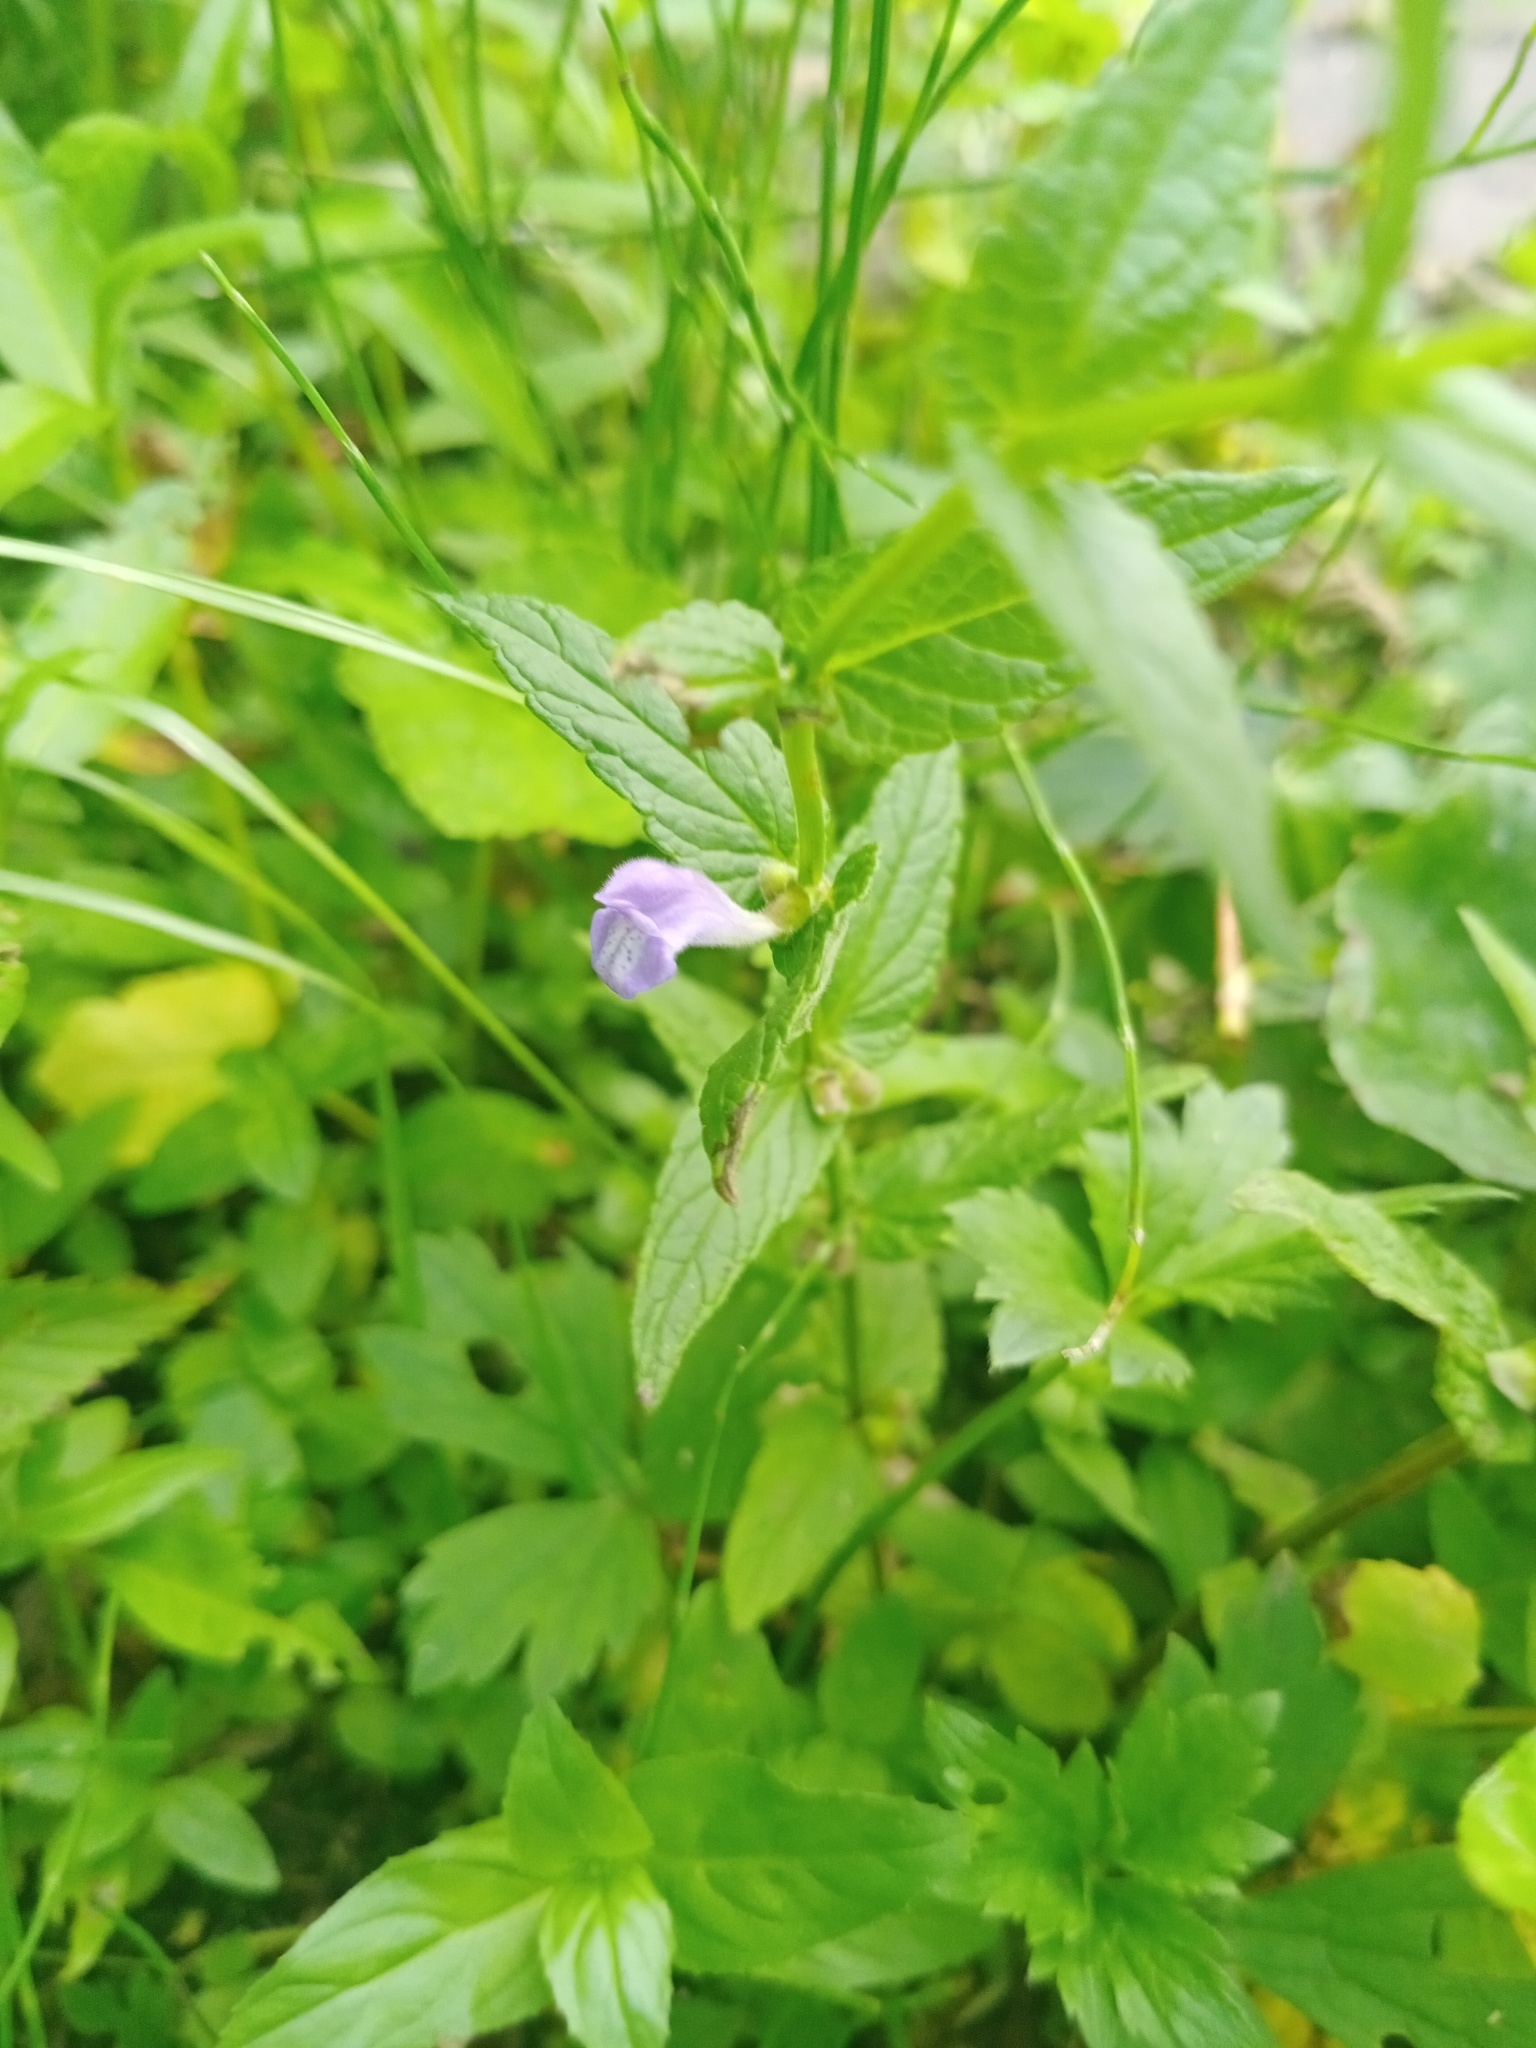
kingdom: Plantae
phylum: Tracheophyta
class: Magnoliopsida
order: Lamiales
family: Lamiaceae
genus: Scutellaria
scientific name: Scutellaria galericulata
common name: Skullcap
